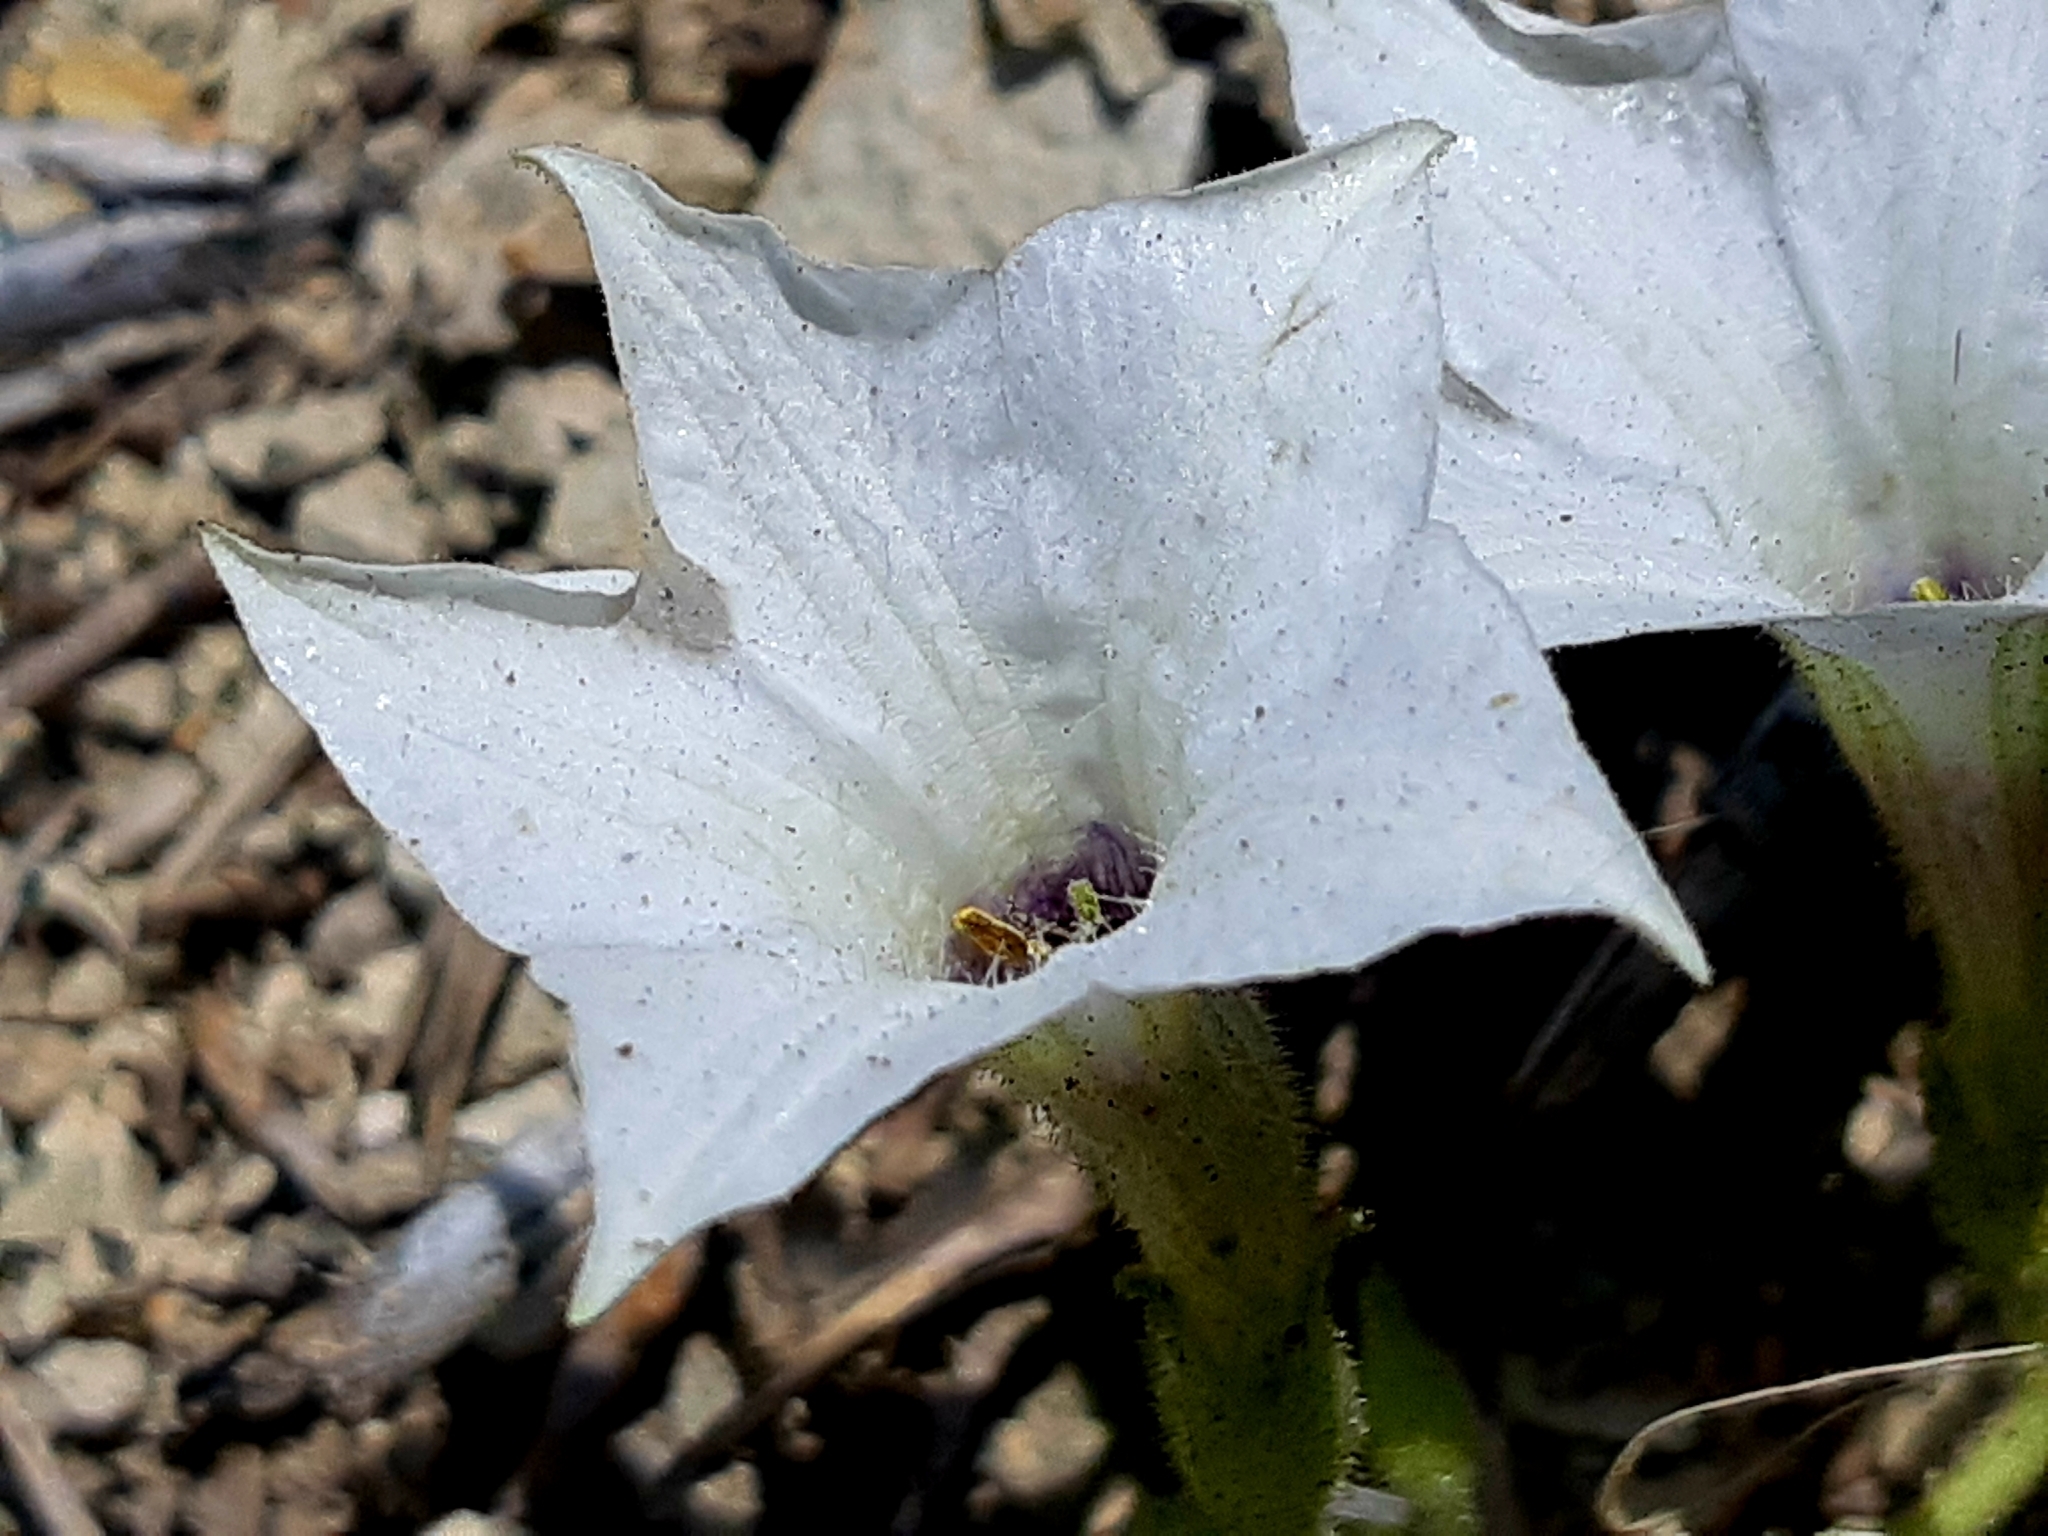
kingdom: Plantae
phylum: Tracheophyta
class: Magnoliopsida
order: Solanales
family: Solanaceae
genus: Exodeconus
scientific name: Exodeconus maritima
